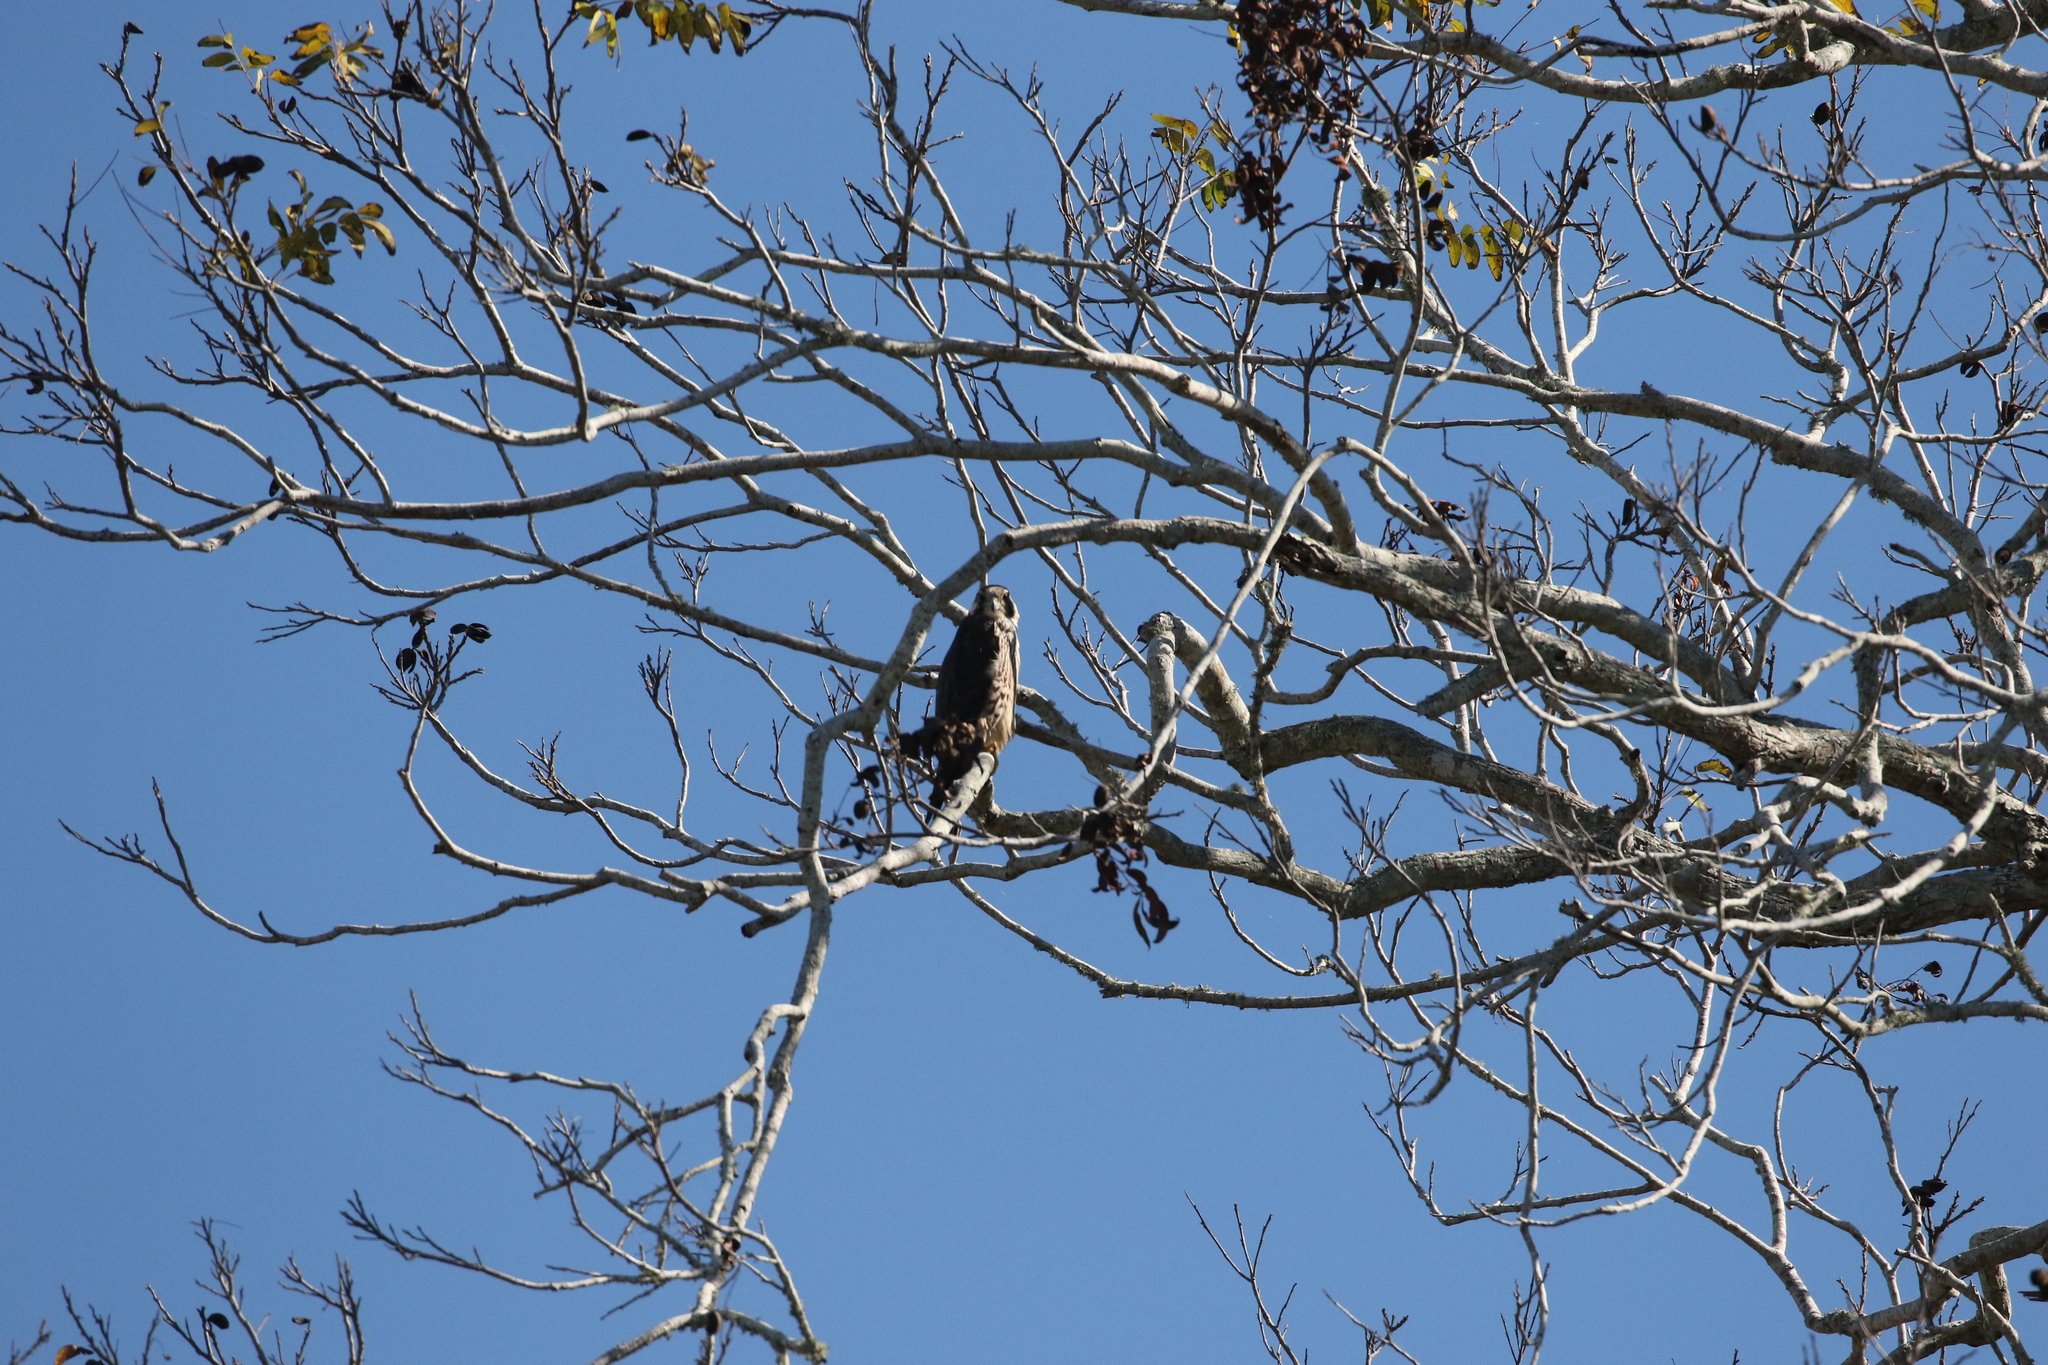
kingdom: Animalia
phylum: Chordata
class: Aves
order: Falconiformes
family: Falconidae
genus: Falco
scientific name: Falco peregrinus
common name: Peregrine falcon
